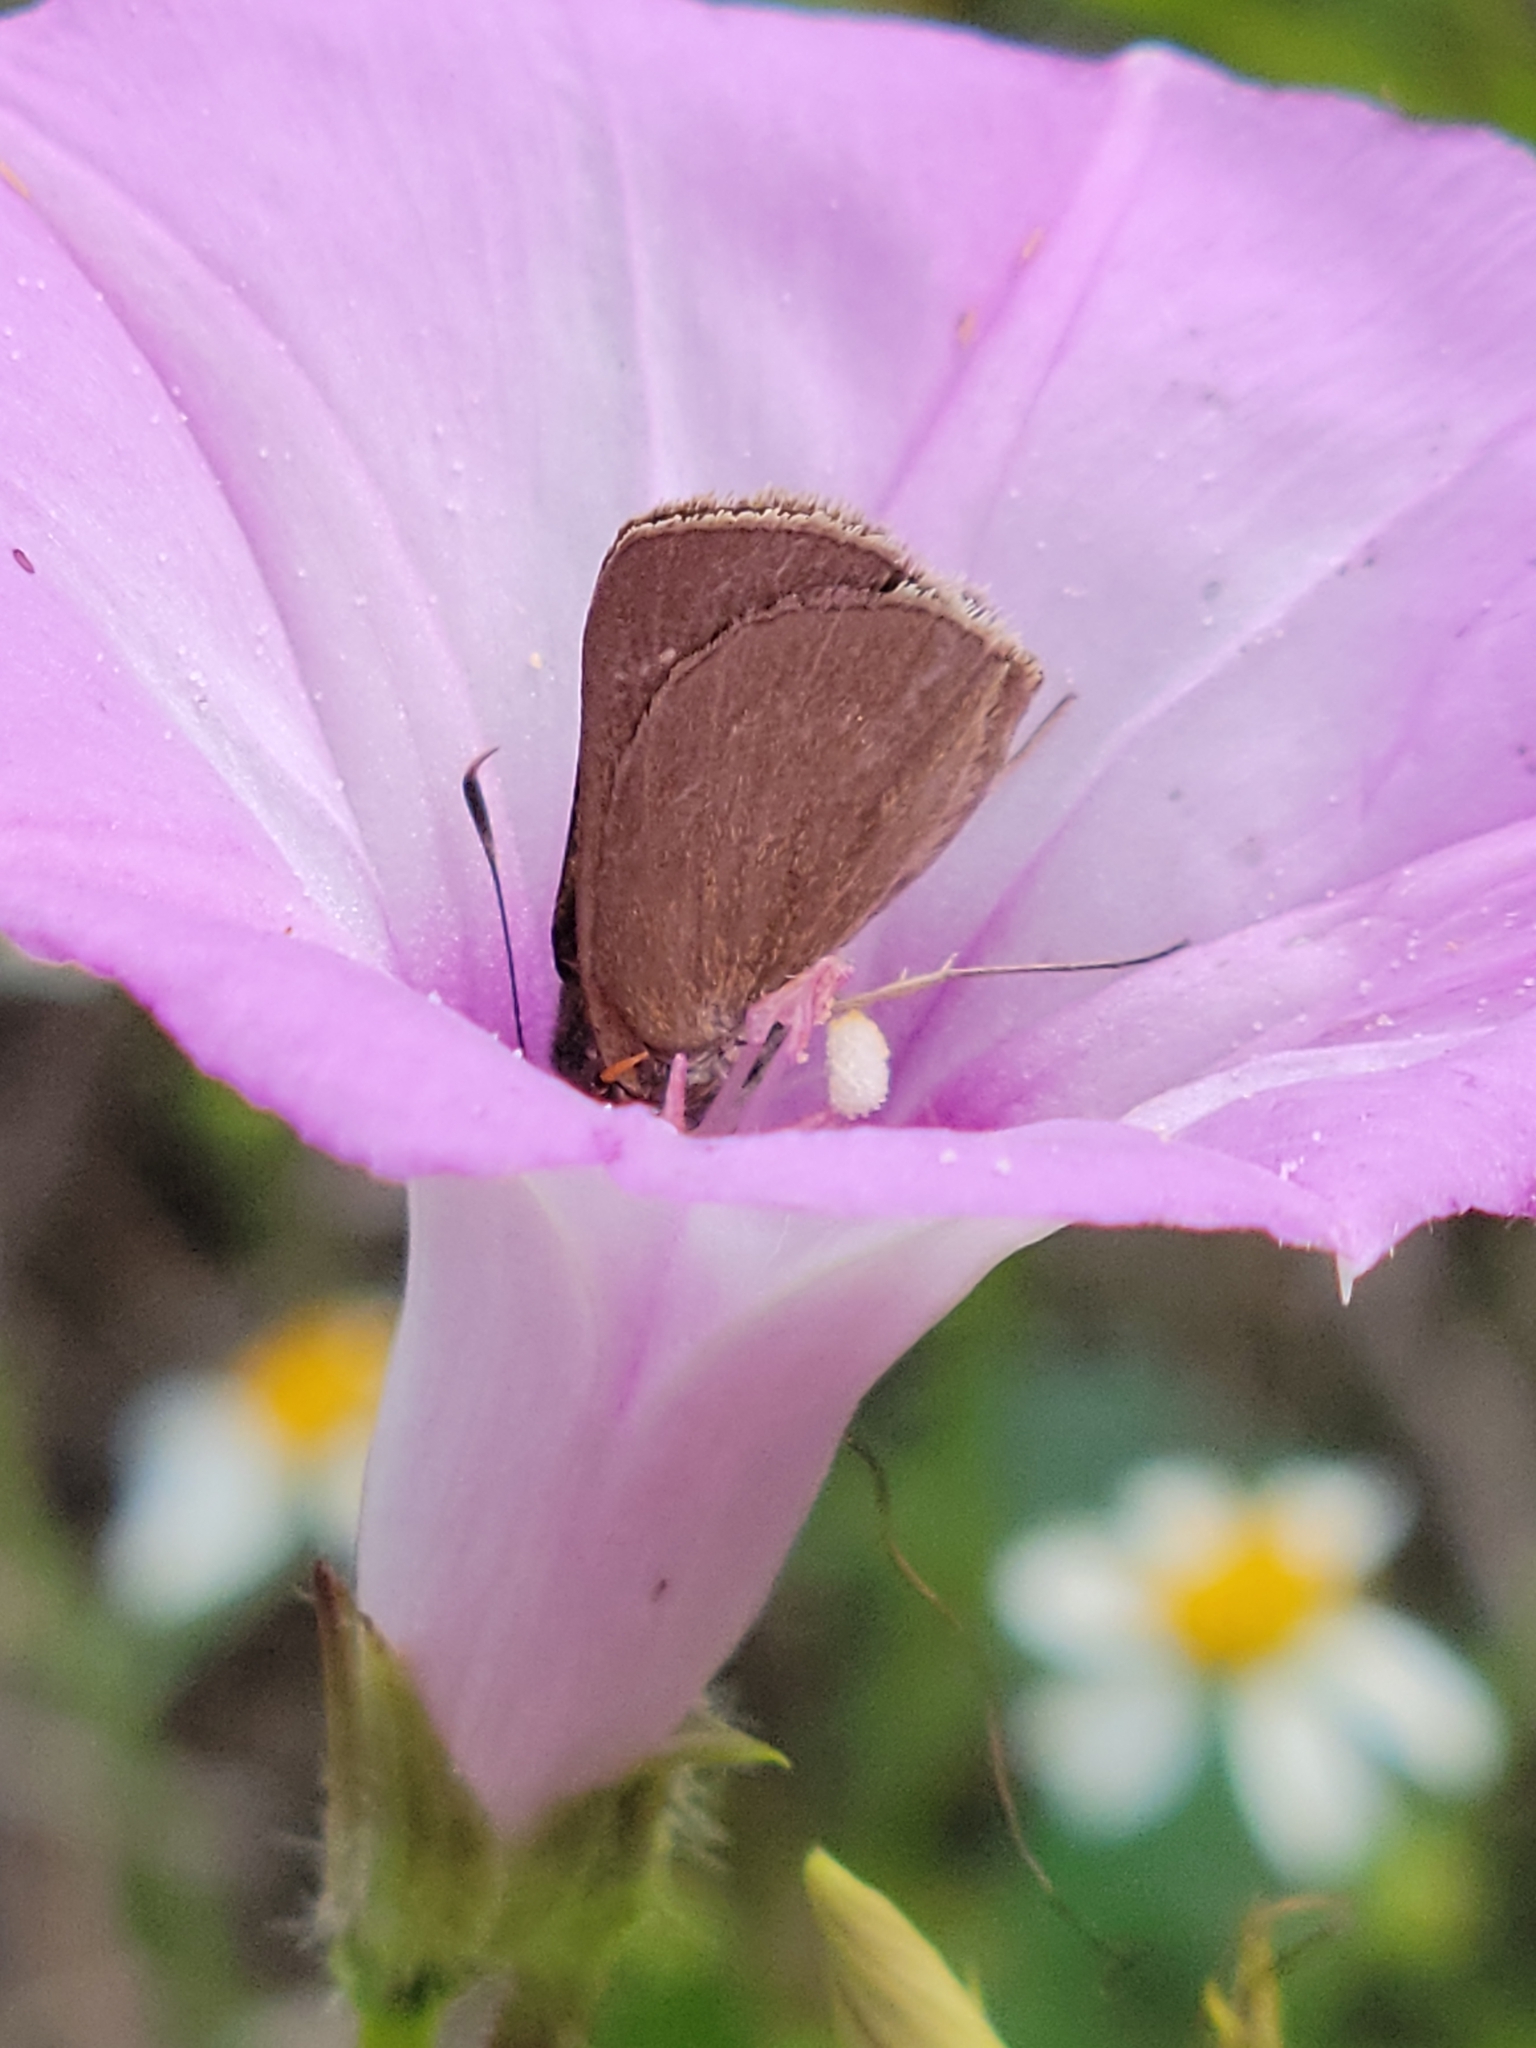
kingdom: Animalia
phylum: Arthropoda
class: Insecta
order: Lepidoptera
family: Hesperiidae
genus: Cymaenes
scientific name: Cymaenes tripunctus
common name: Dingy dotted skipper
